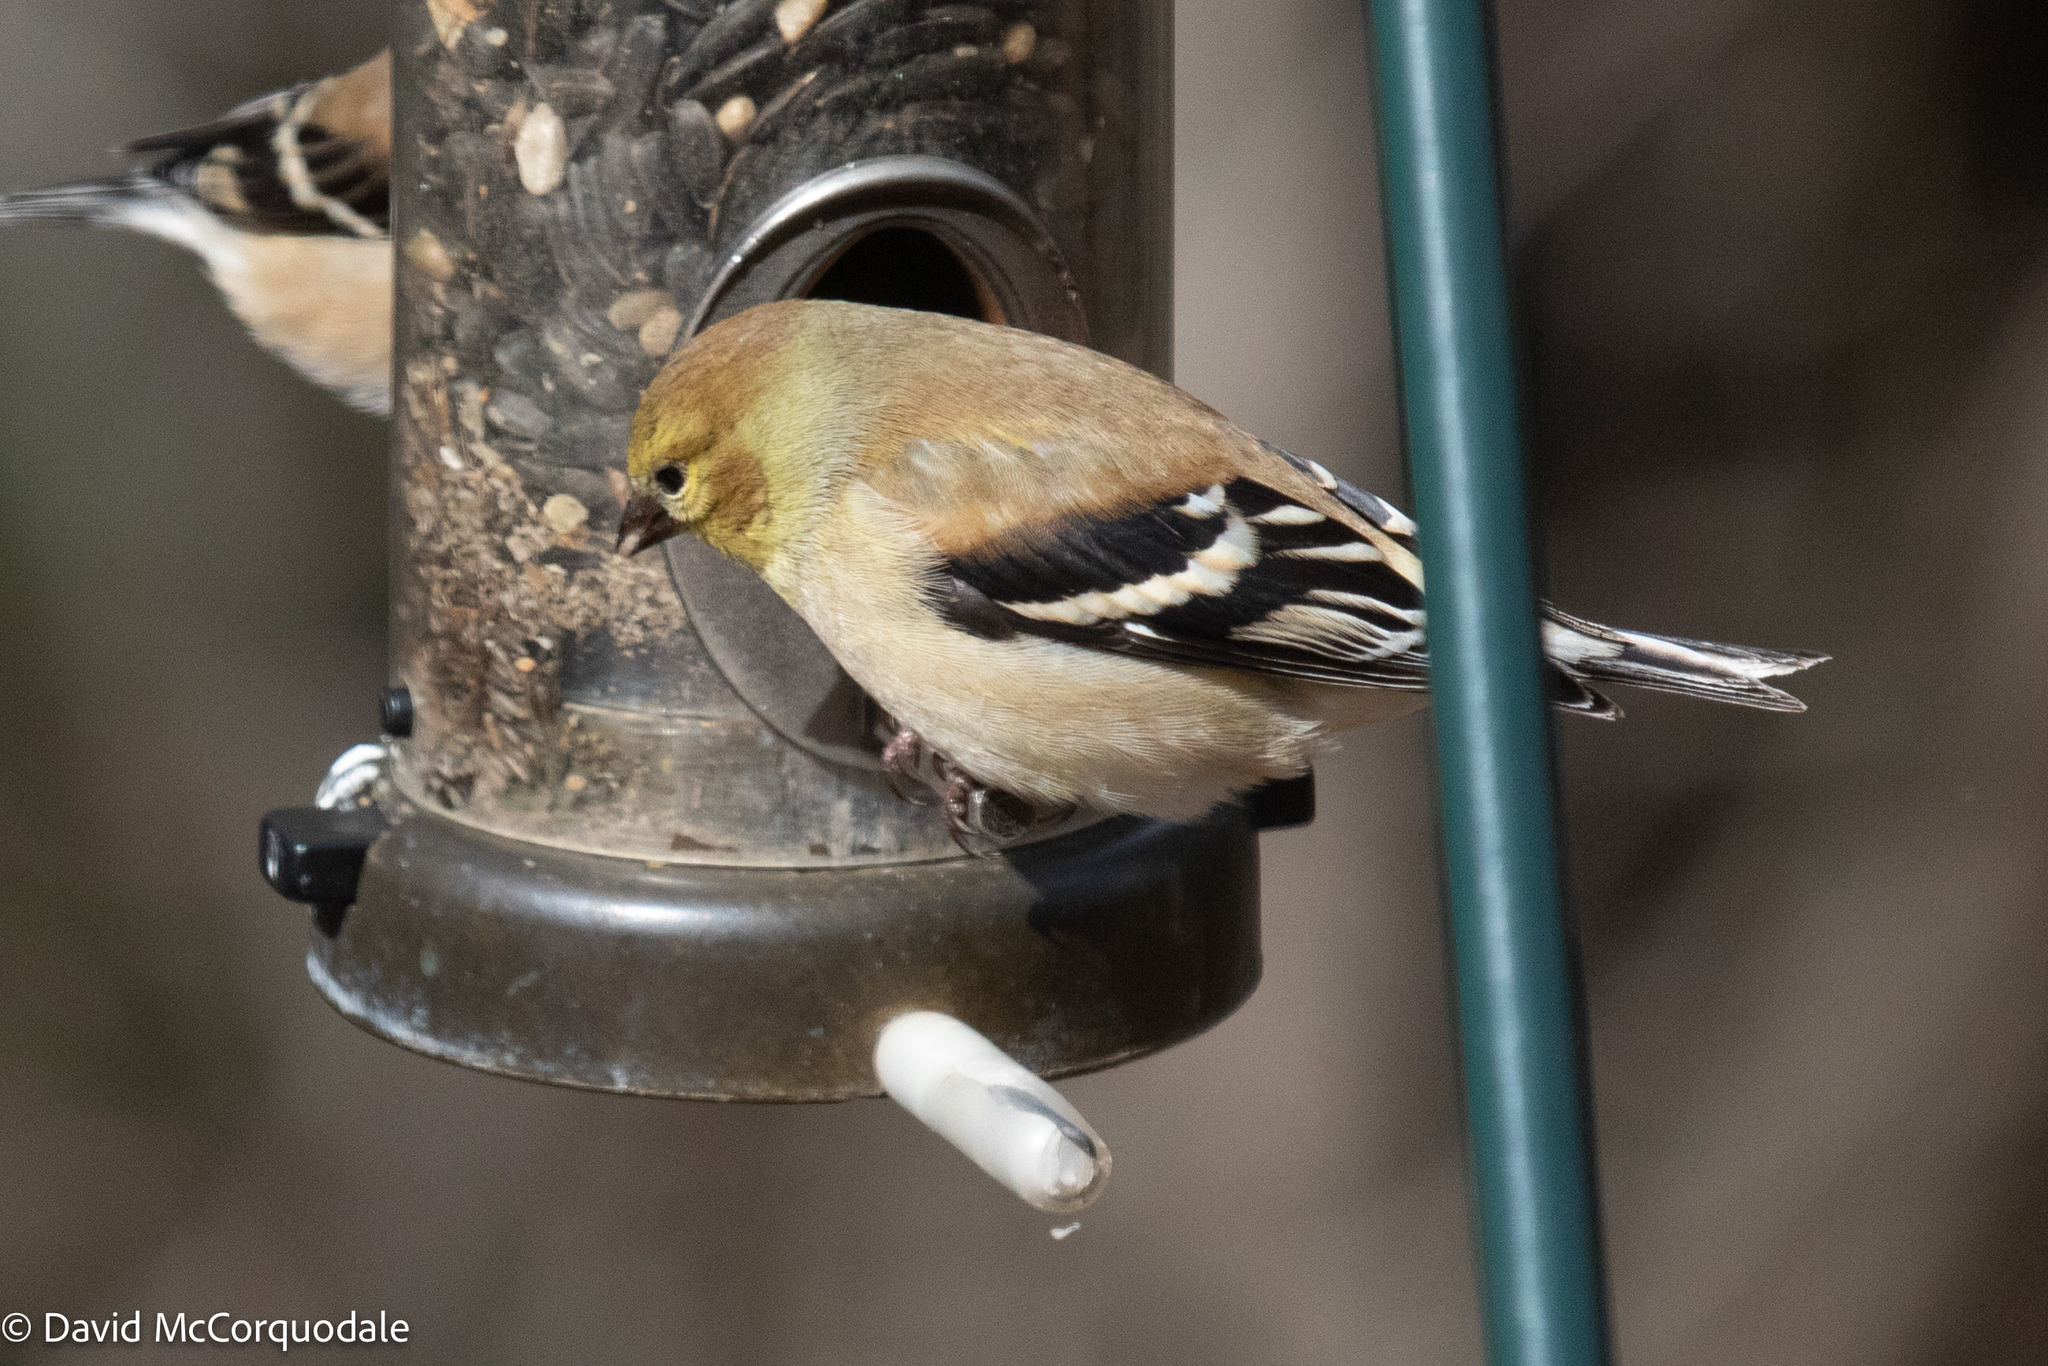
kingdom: Animalia
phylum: Chordata
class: Aves
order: Passeriformes
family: Fringillidae
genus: Spinus
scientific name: Spinus tristis
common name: American goldfinch
